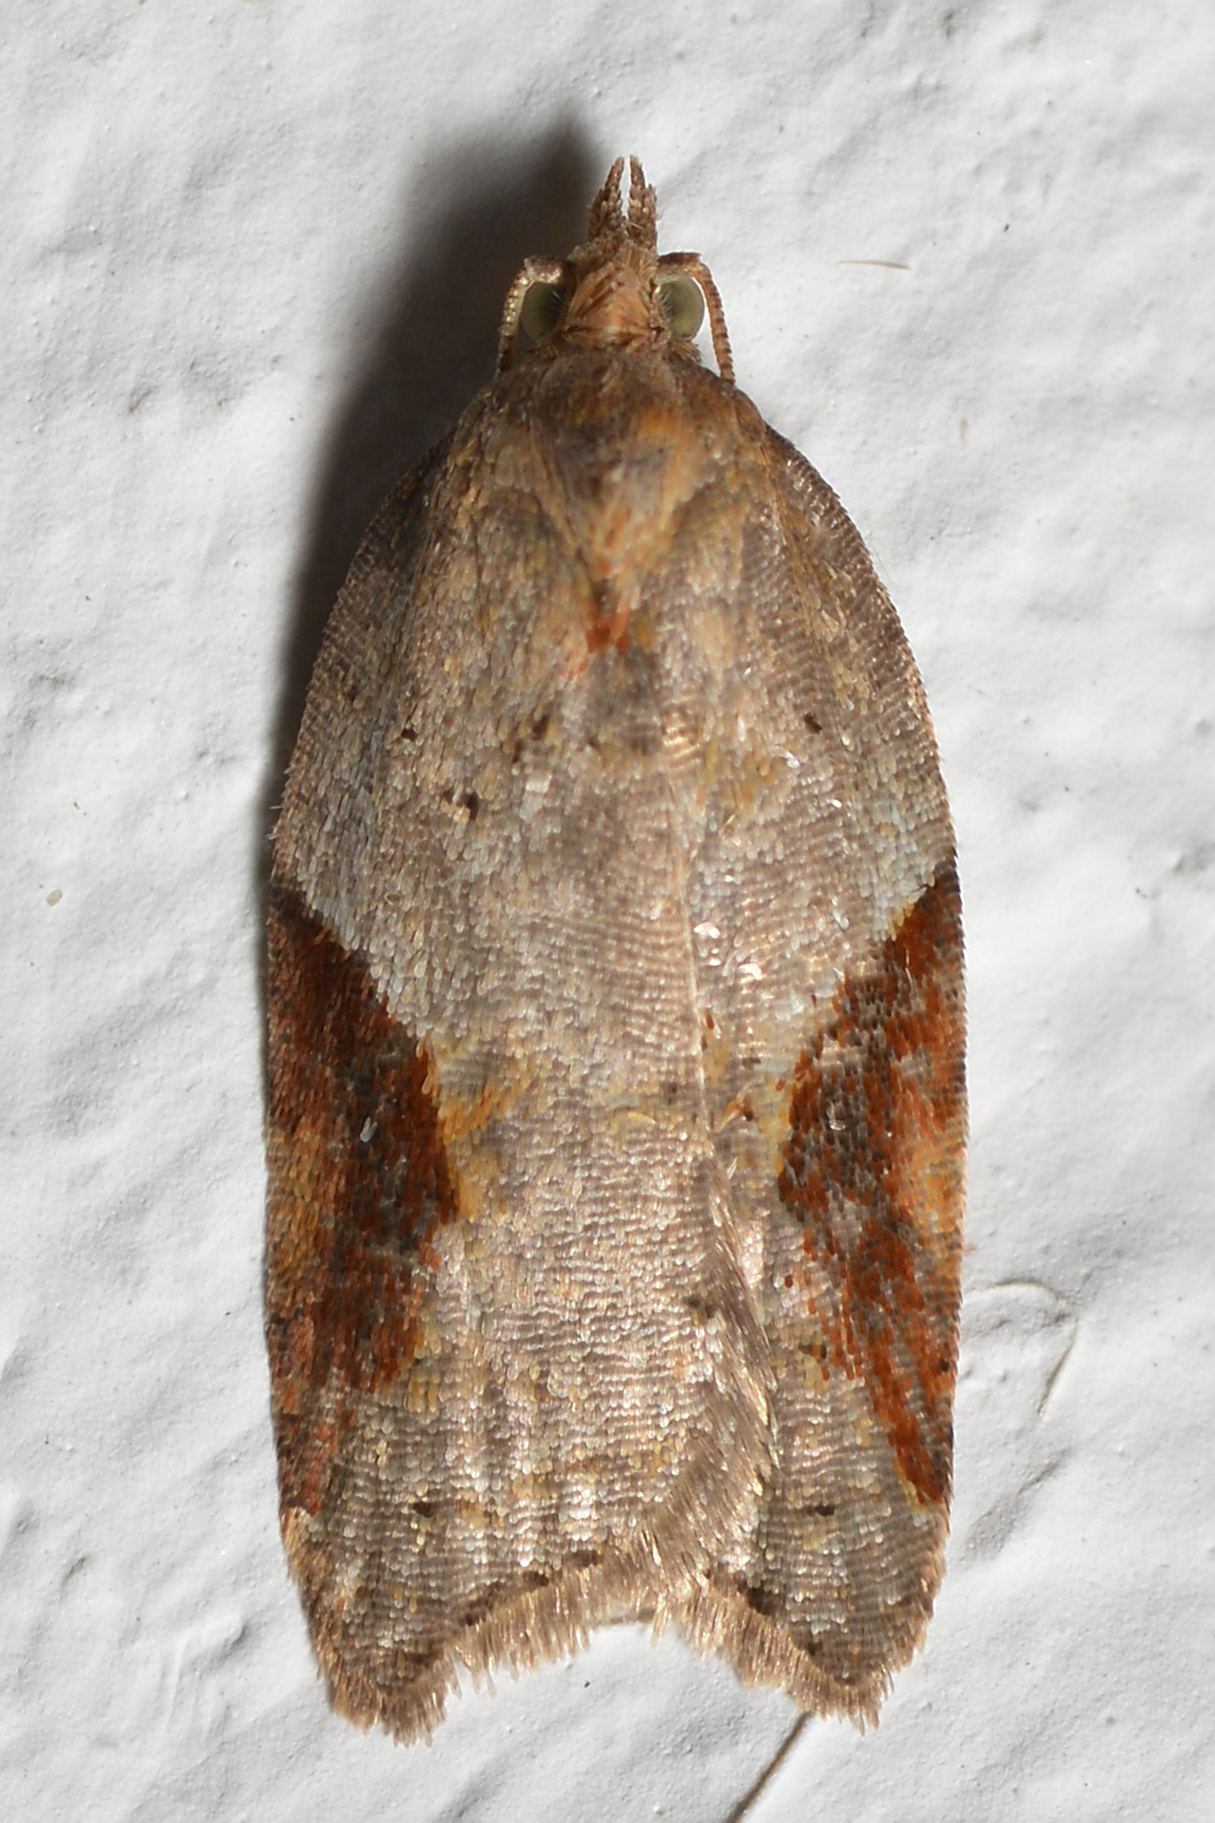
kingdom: Animalia
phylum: Arthropoda
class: Insecta
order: Lepidoptera
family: Tortricidae
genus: Acleris
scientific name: Acleris laterana
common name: Dark-triangle button
